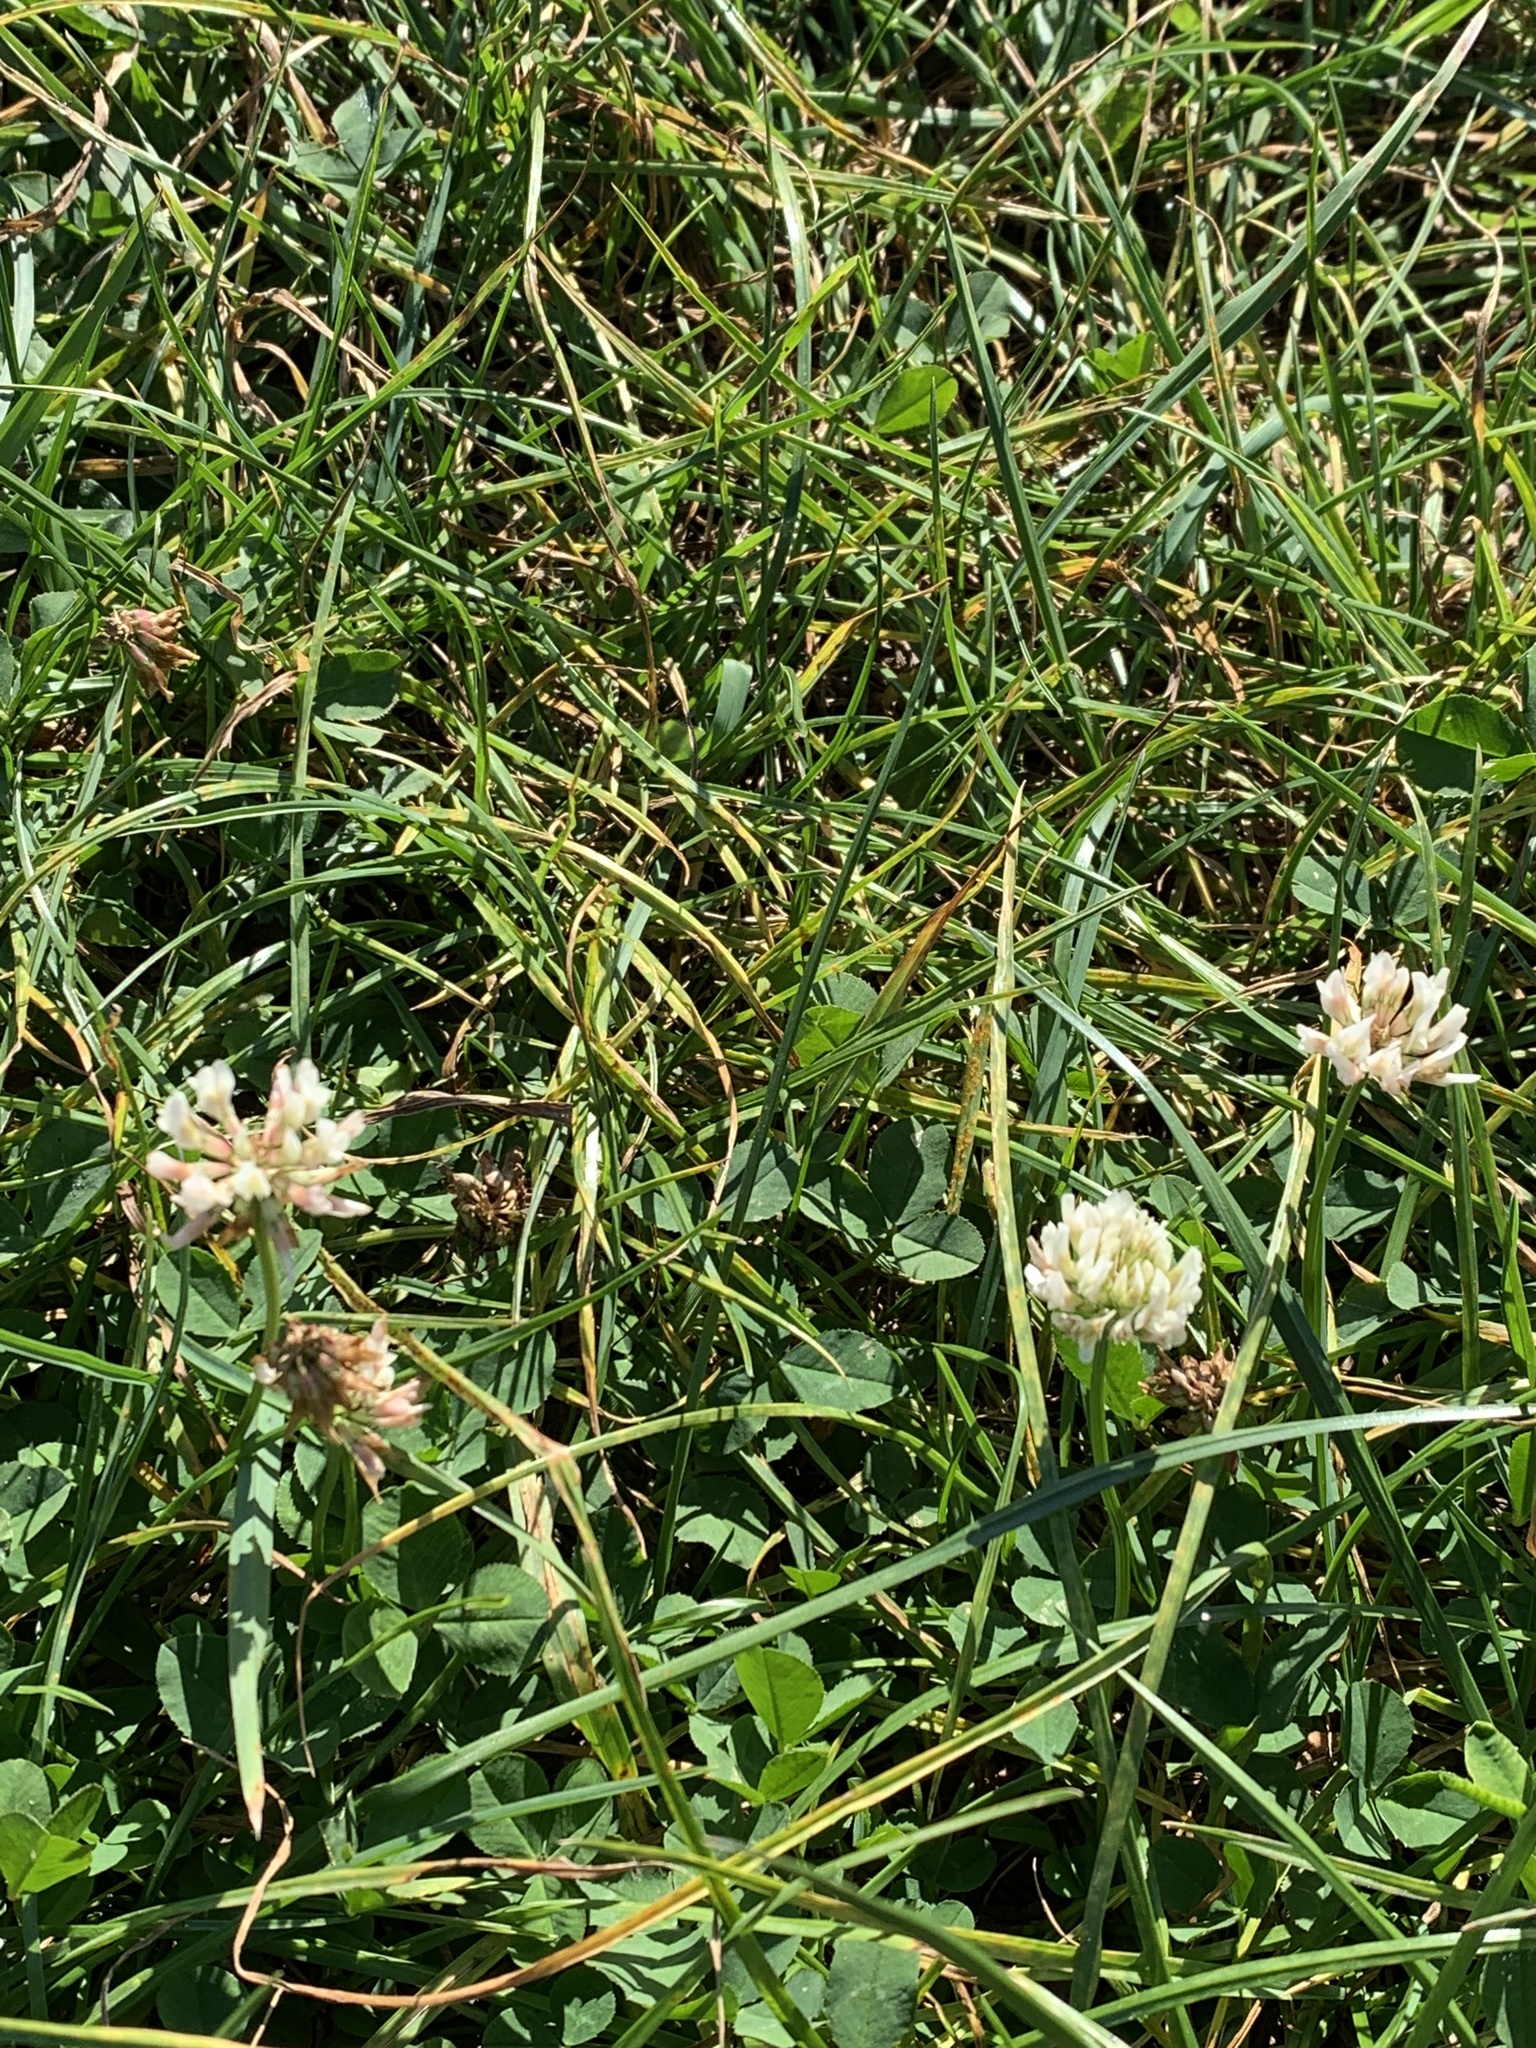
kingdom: Plantae
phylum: Tracheophyta
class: Magnoliopsida
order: Fabales
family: Fabaceae
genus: Trifolium
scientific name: Trifolium repens
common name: White clover
